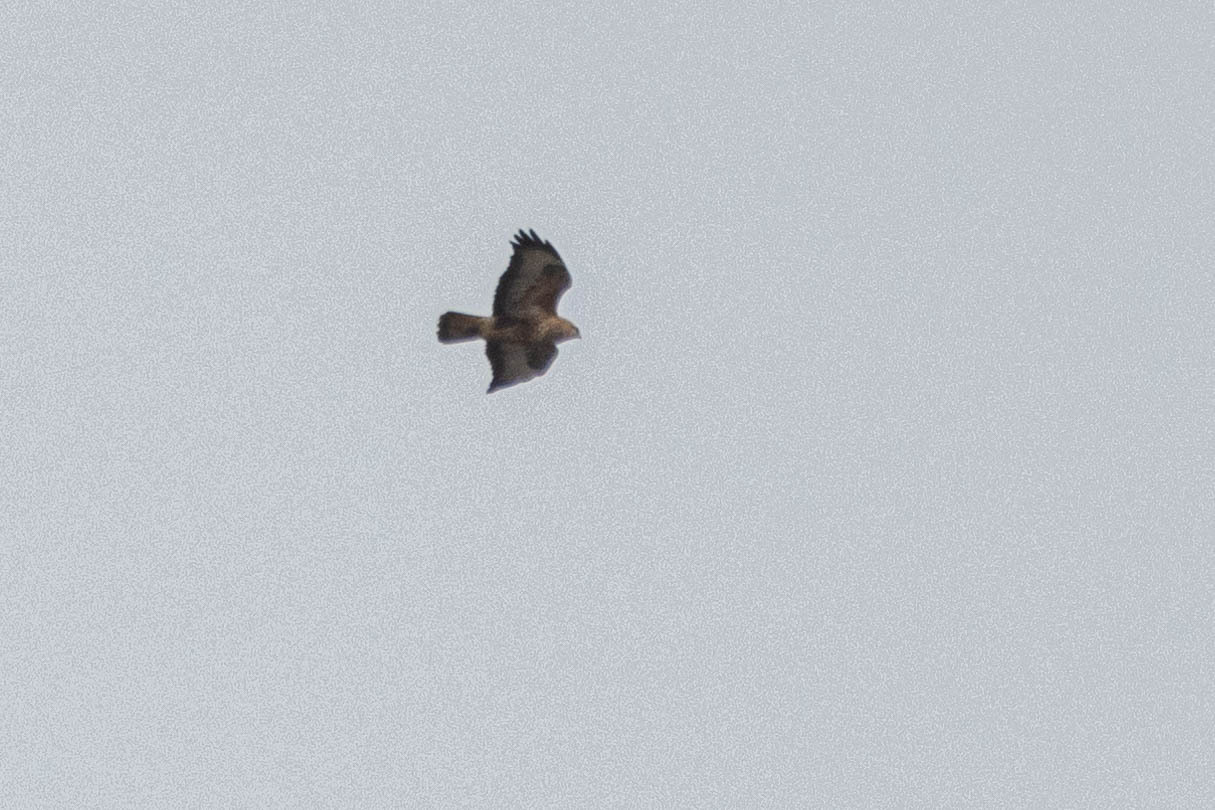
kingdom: Animalia
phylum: Chordata
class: Aves
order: Accipitriformes
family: Accipitridae
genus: Buteo
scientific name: Buteo buteo
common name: Common buzzard
